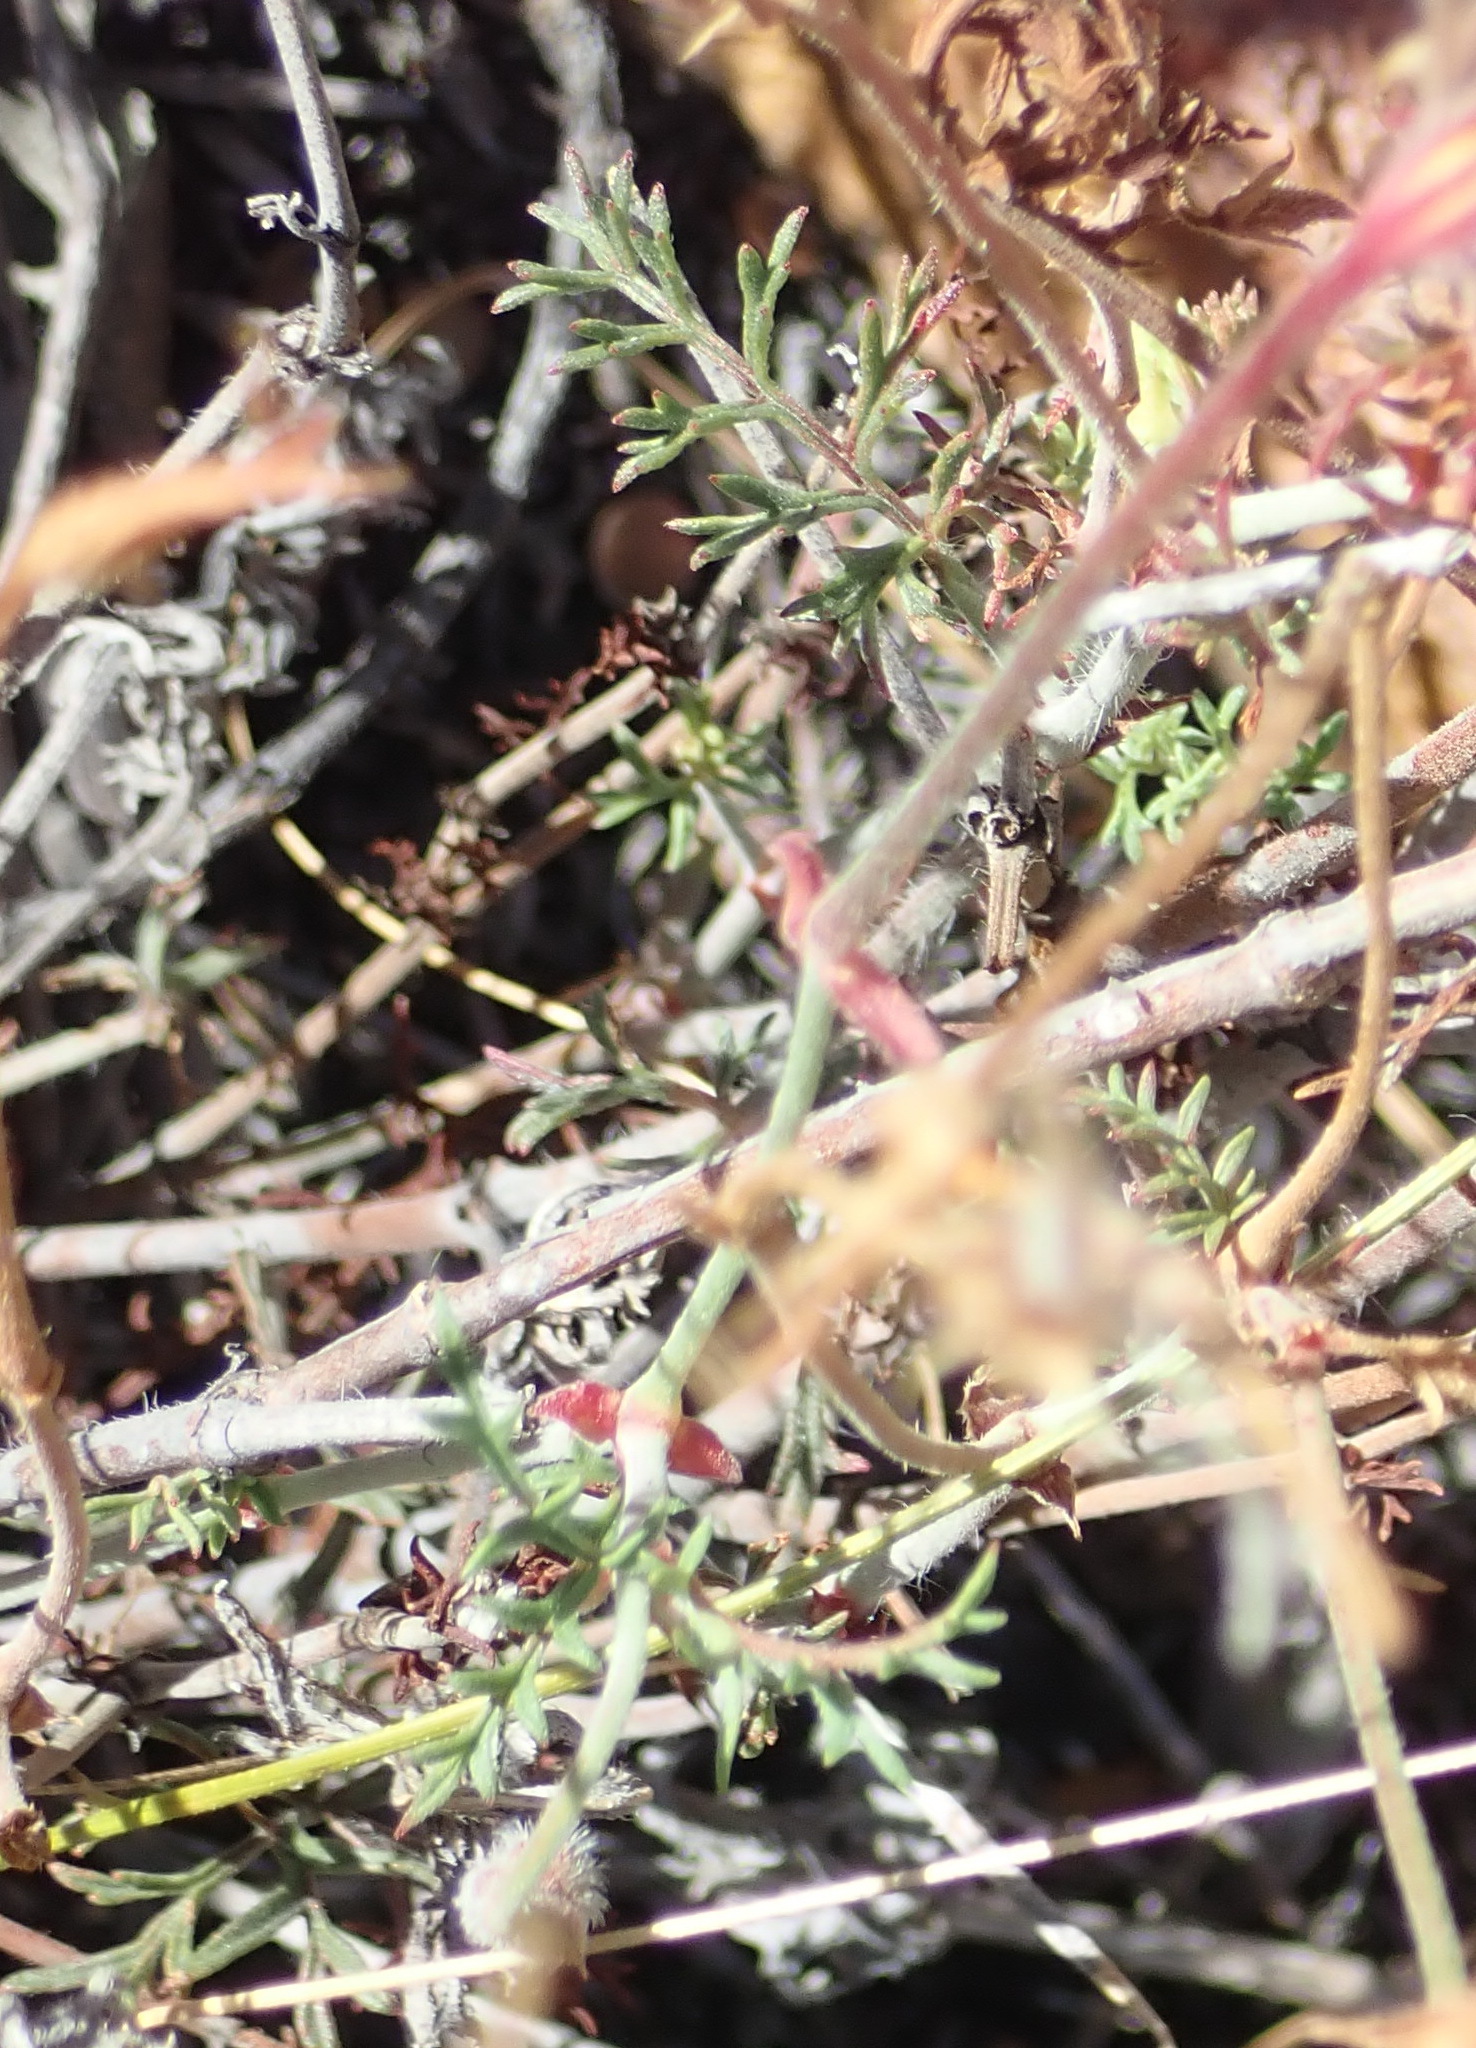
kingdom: Plantae
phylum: Tracheophyta
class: Magnoliopsida
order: Geraniales
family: Geraniaceae
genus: Pelargonium
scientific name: Pelargonium myrrhifolium
